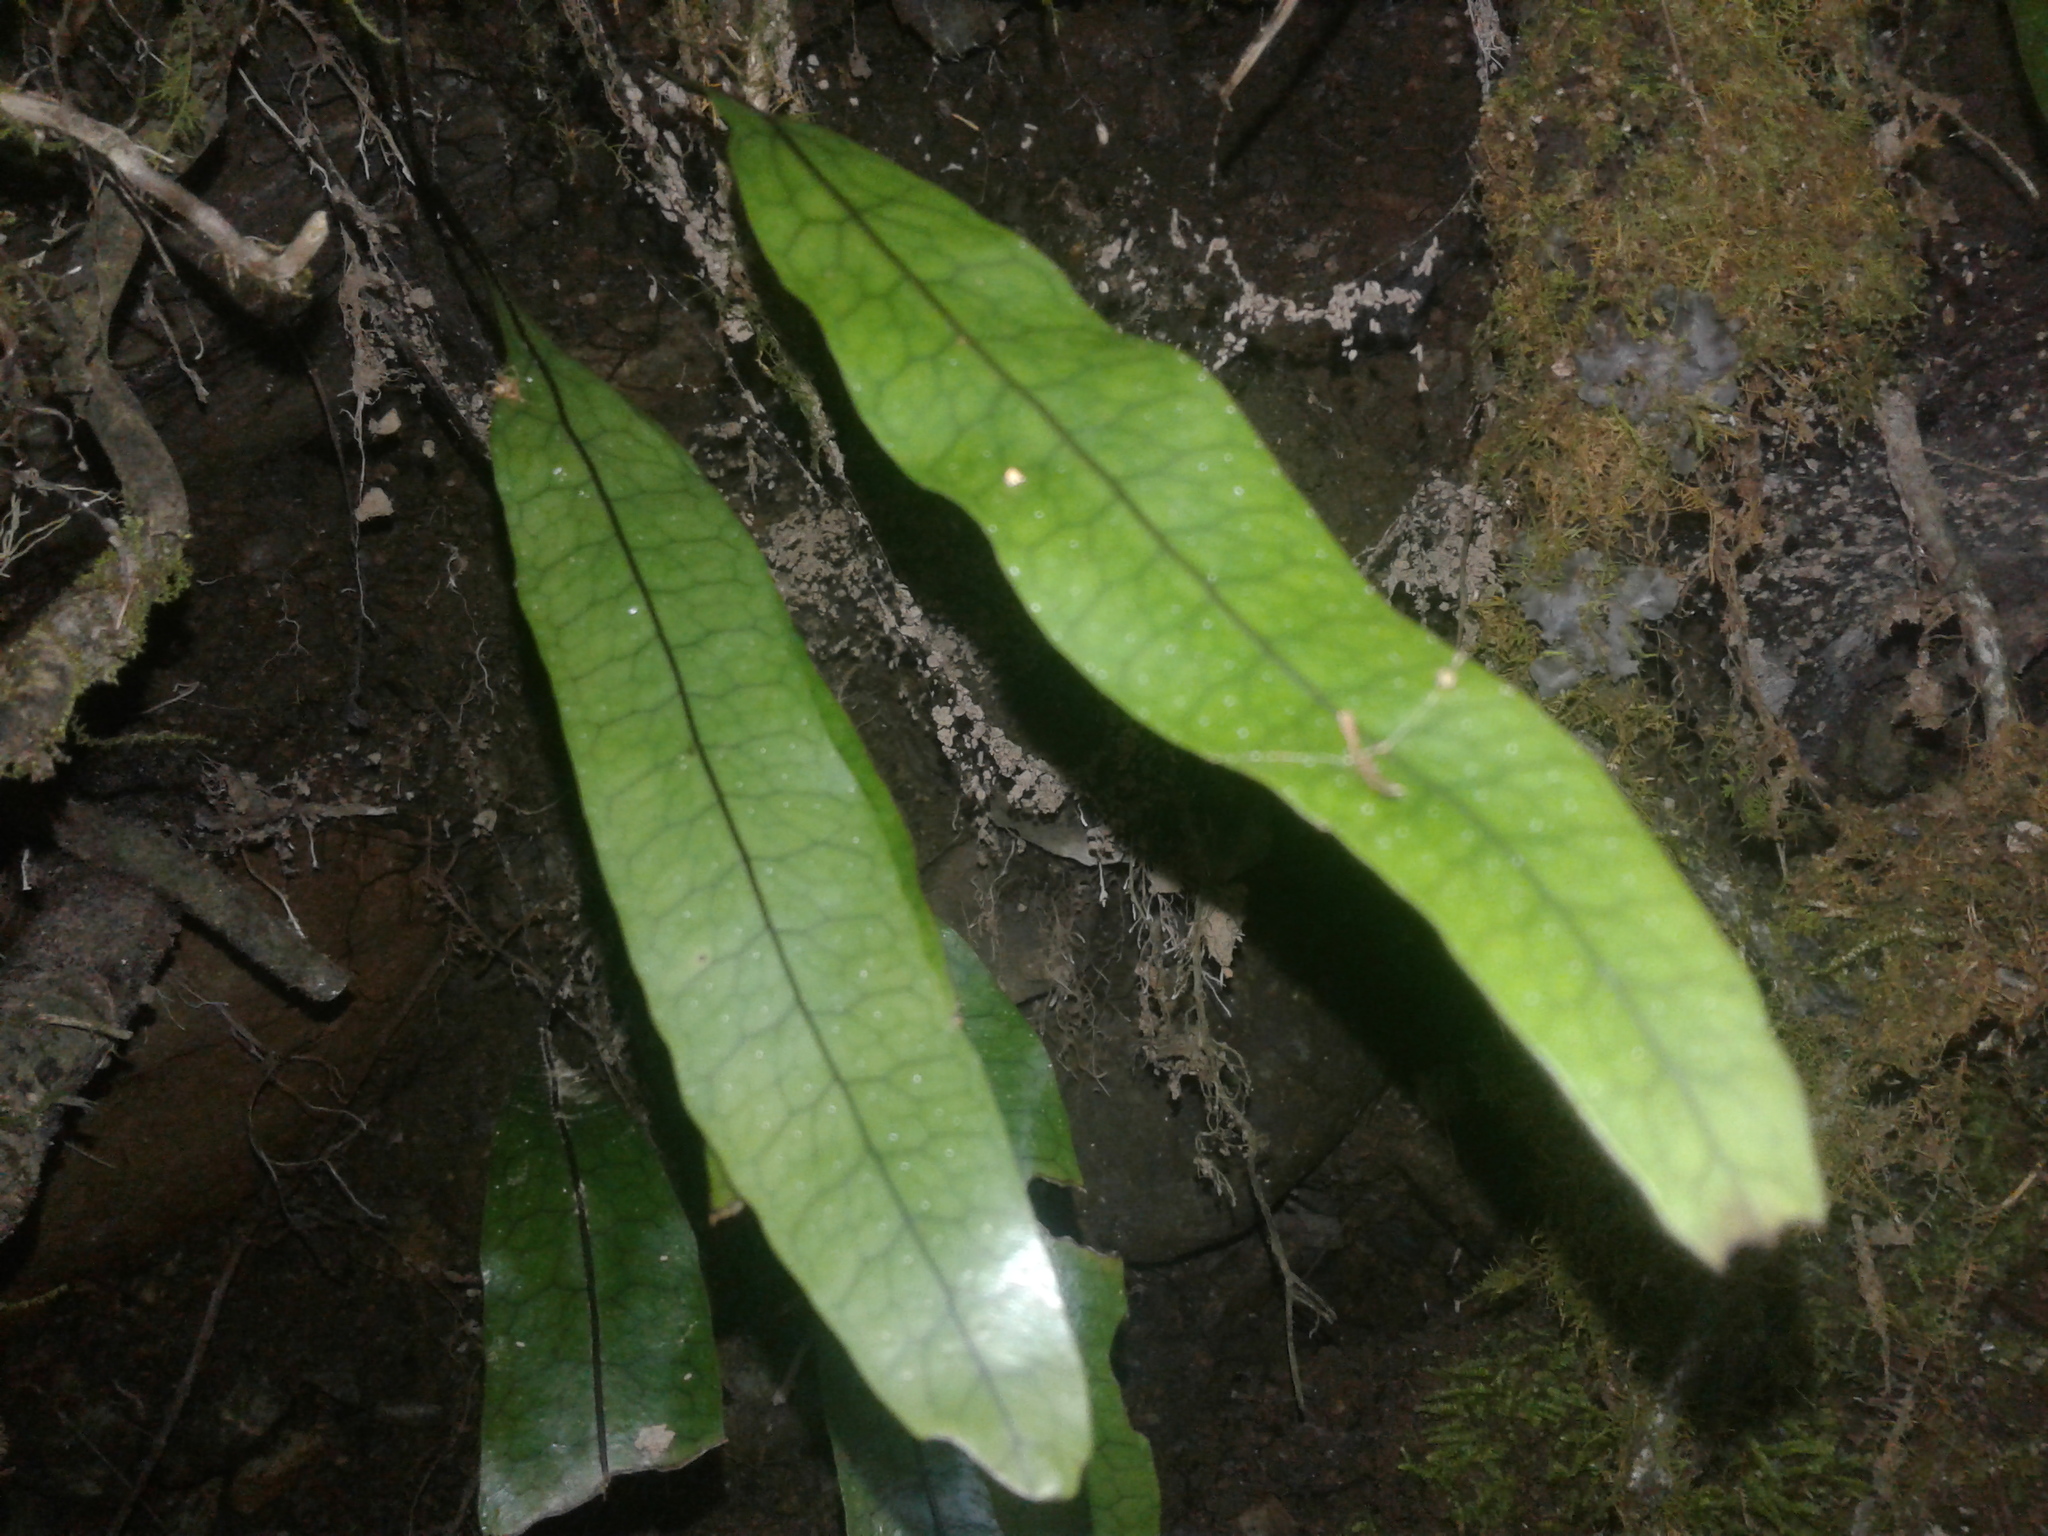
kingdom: Plantae
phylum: Tracheophyta
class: Polypodiopsida
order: Polypodiales
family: Polypodiaceae
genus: Lecanopteris
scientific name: Lecanopteris pustulata
